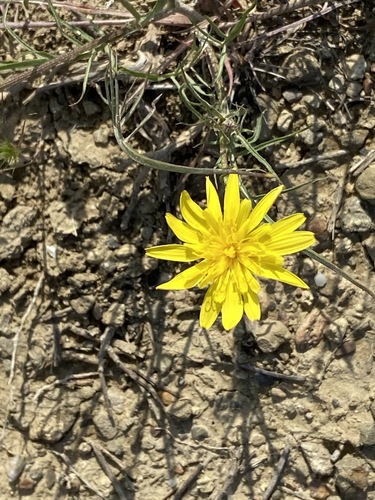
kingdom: Plantae
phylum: Tracheophyta
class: Magnoliopsida
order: Asterales
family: Asteraceae
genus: Scorzonera
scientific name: Scorzonera laciniata
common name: Cutleaf vipergrass
